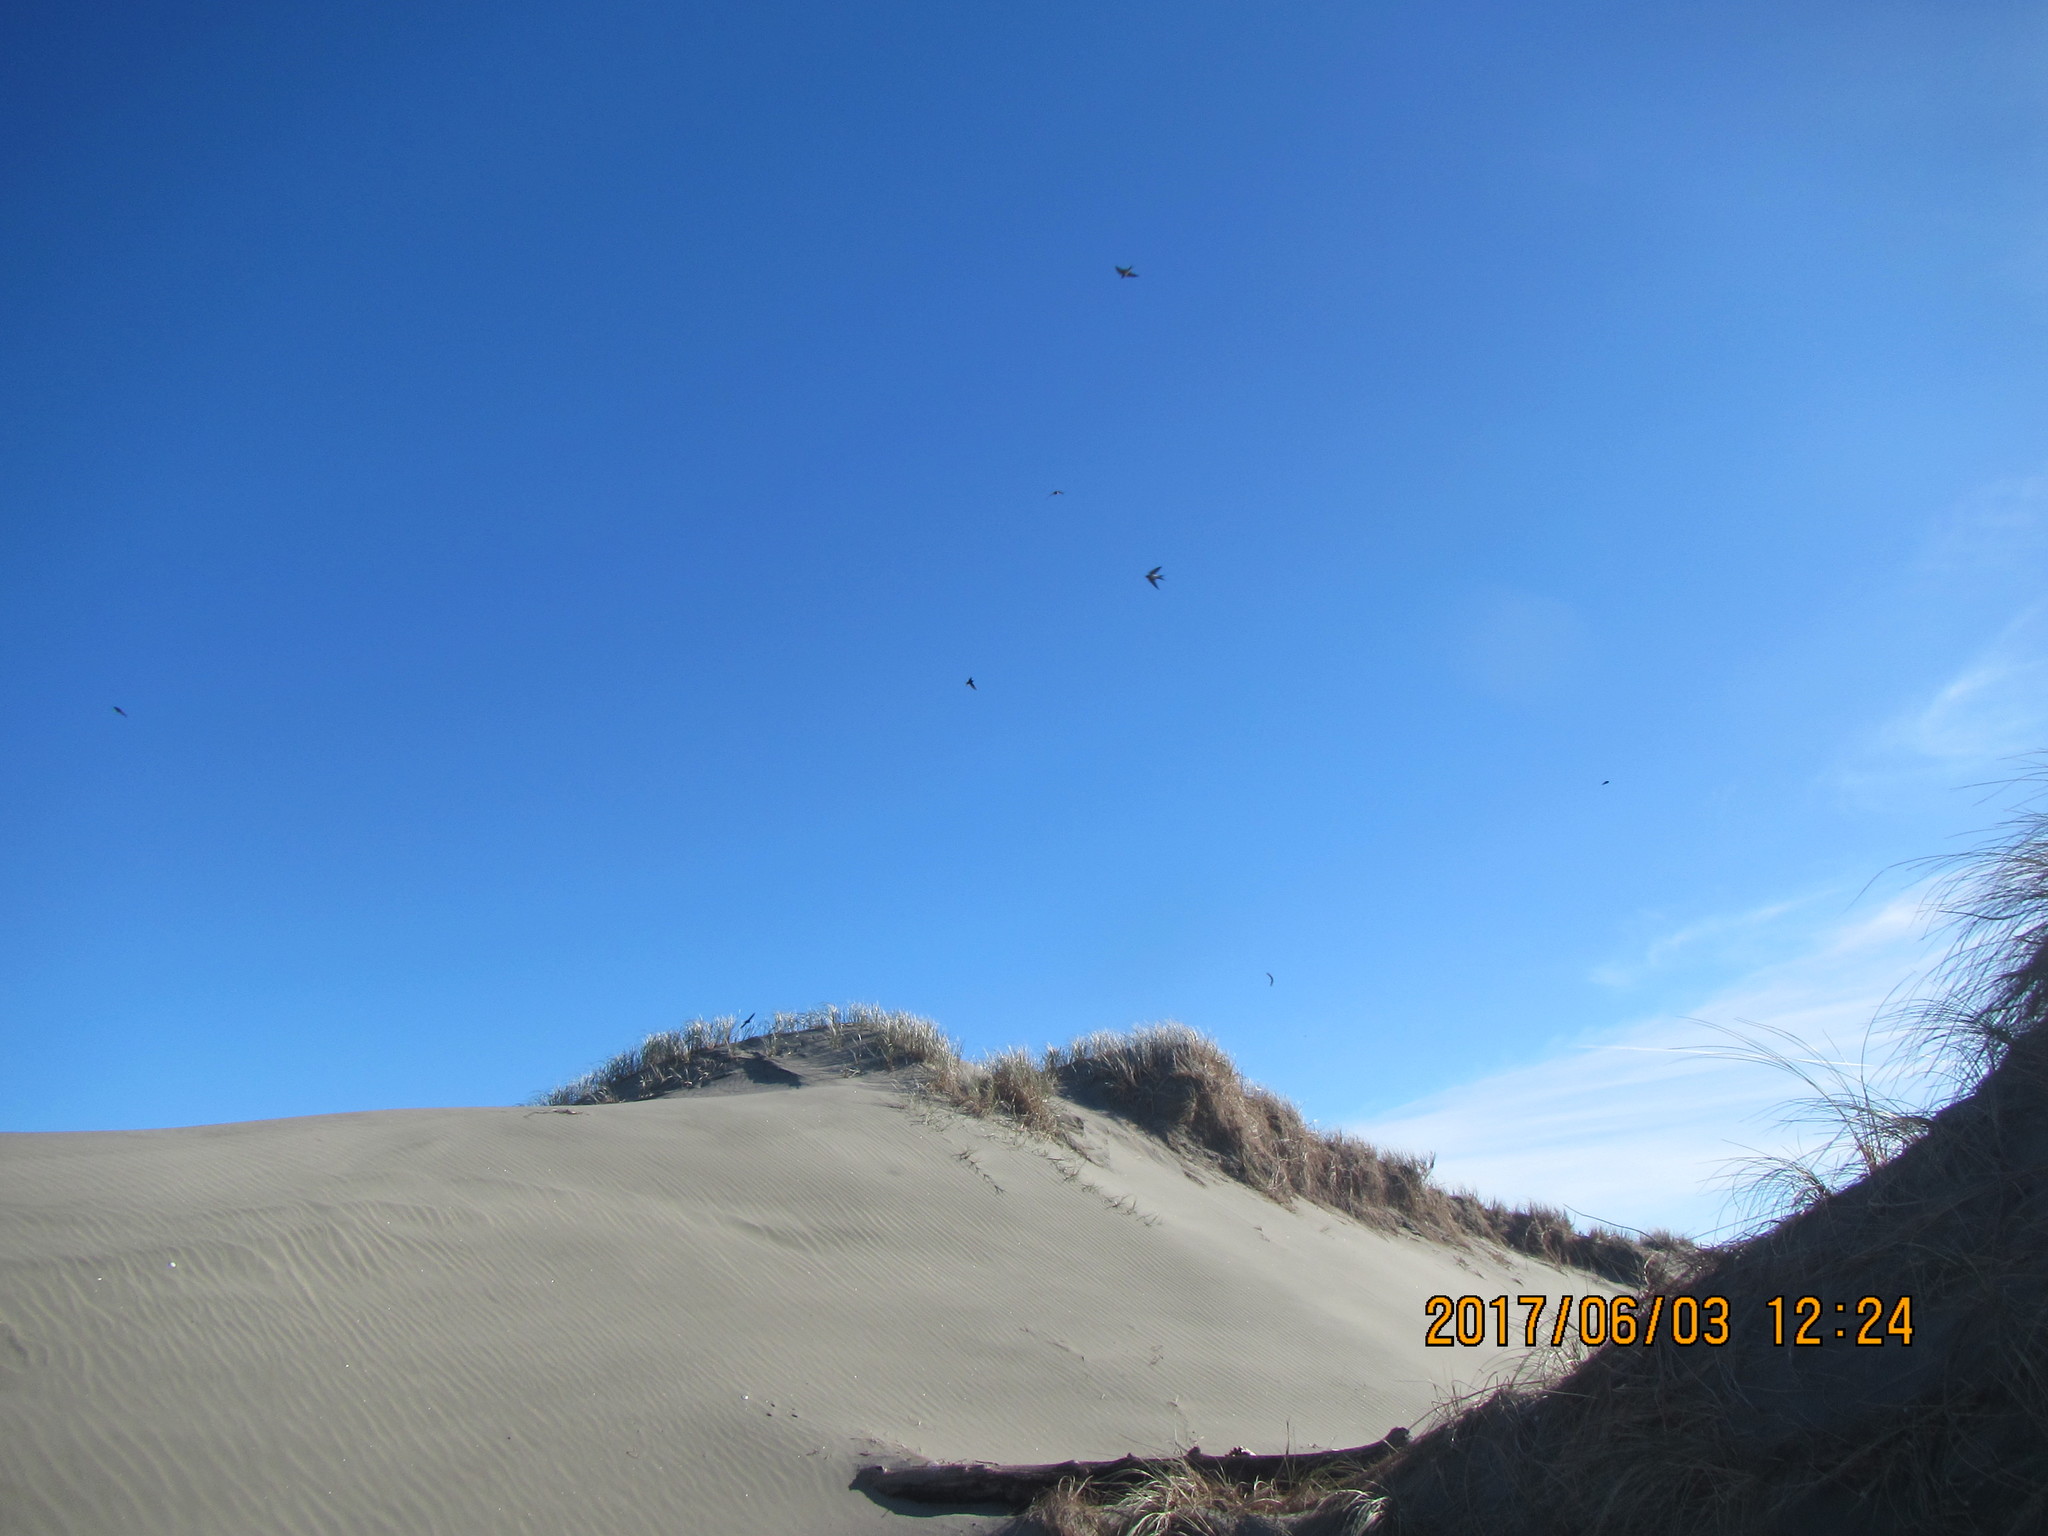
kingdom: Animalia
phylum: Chordata
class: Aves
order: Passeriformes
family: Hirundinidae
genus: Hirundo
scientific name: Hirundo neoxena
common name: Welcome swallow
